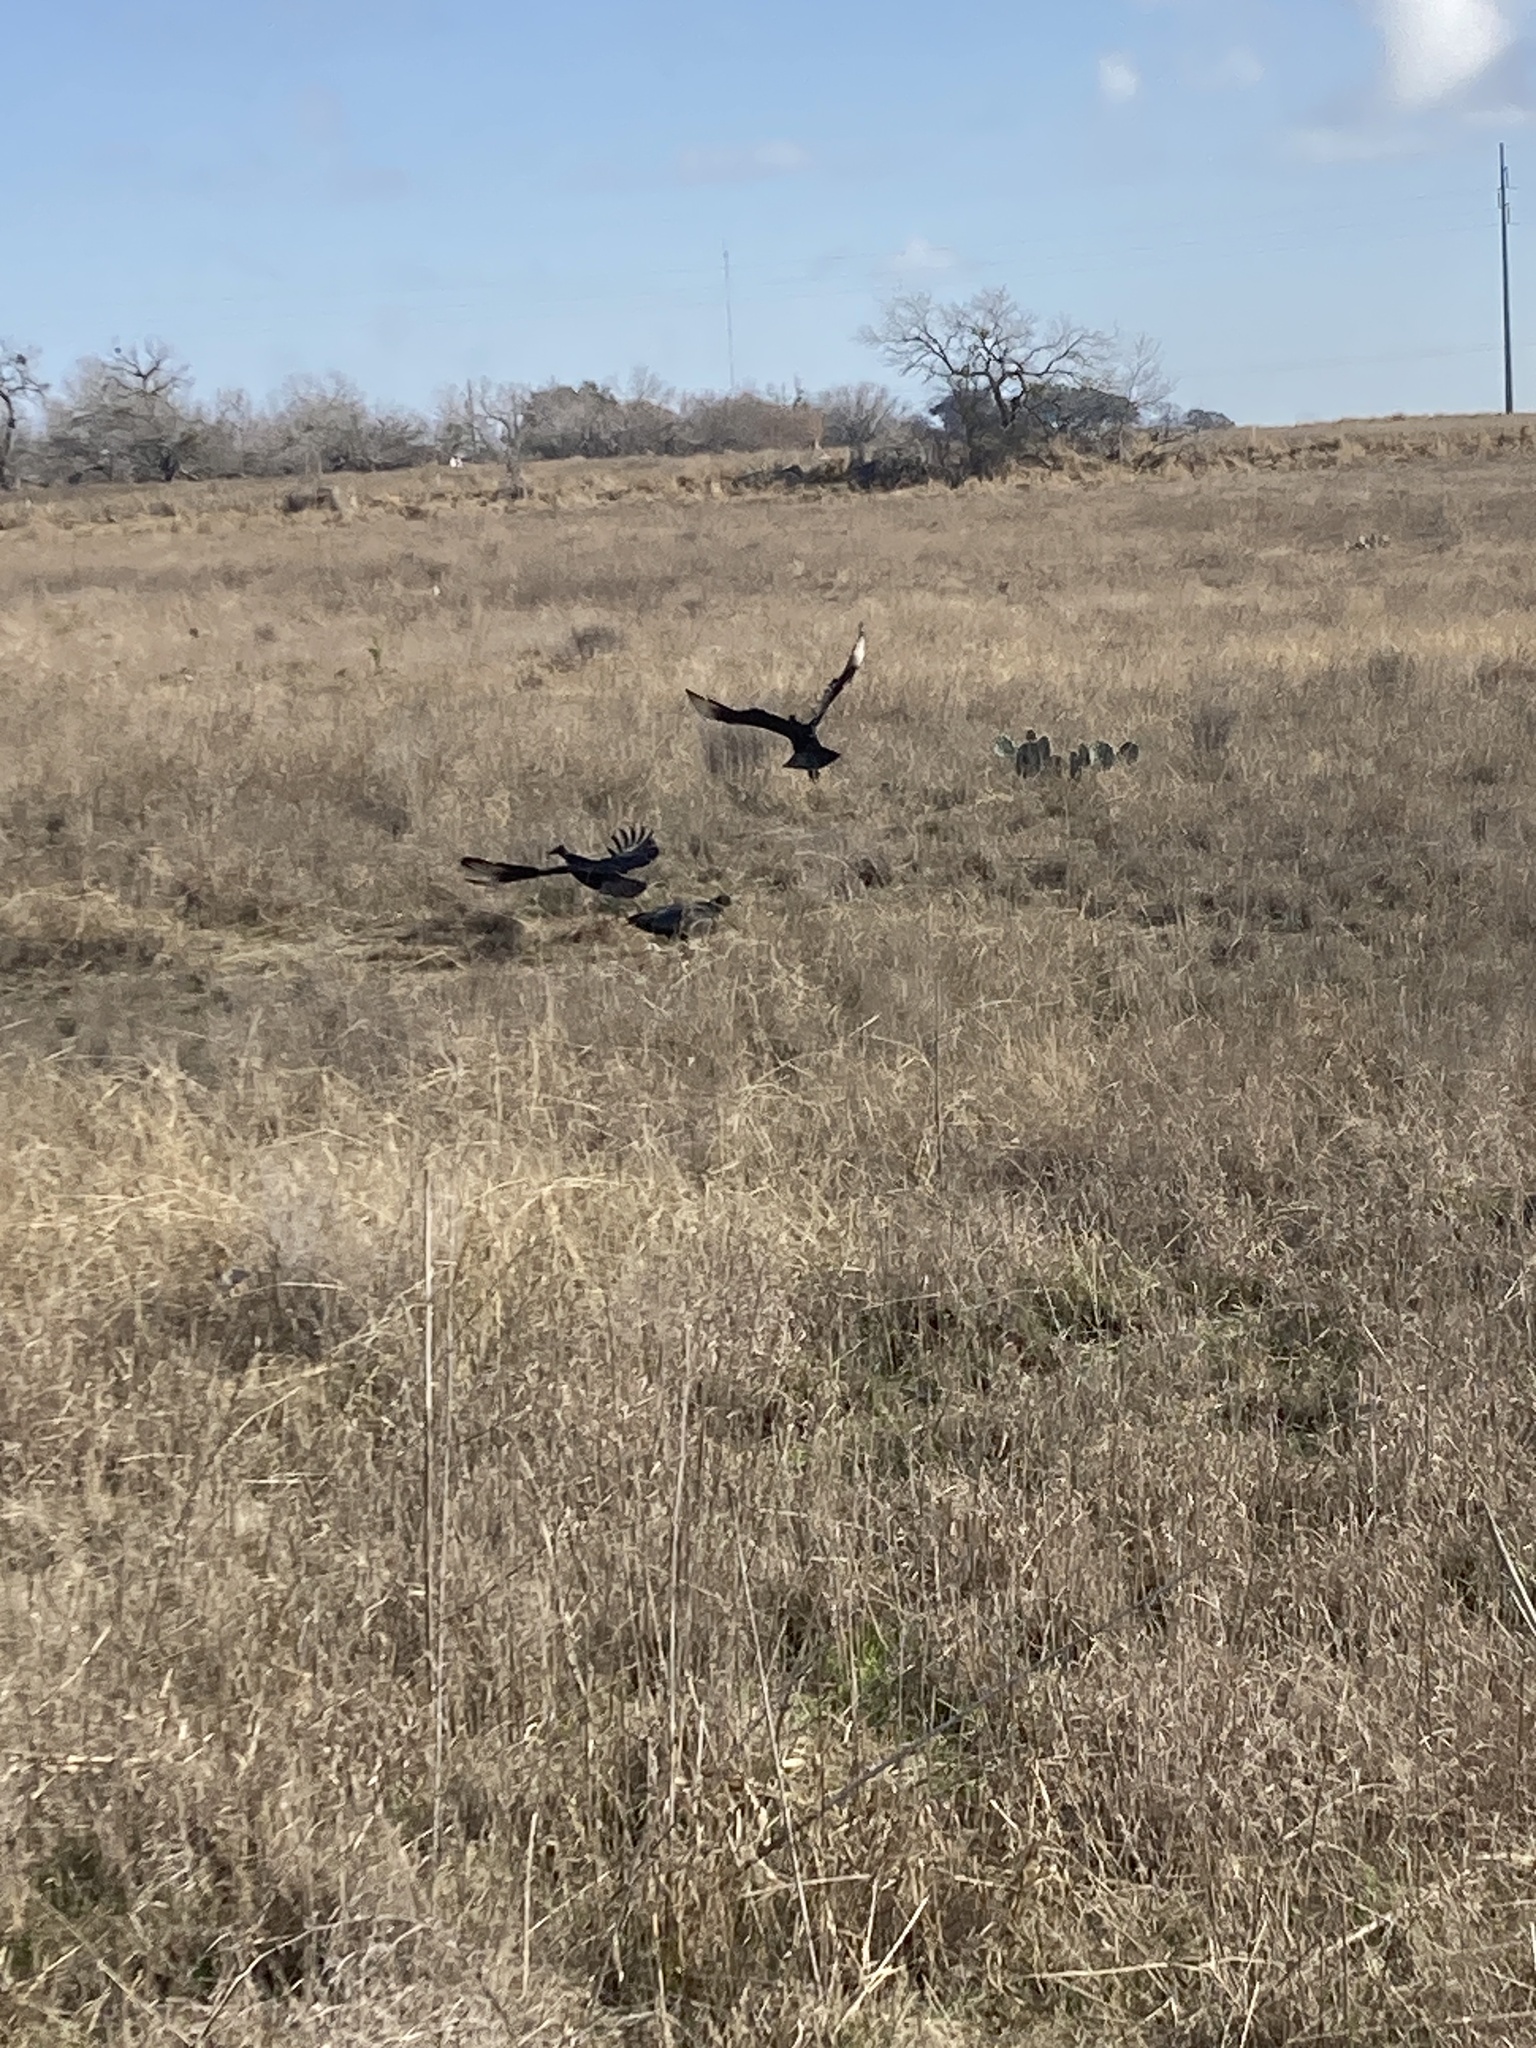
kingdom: Animalia
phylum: Chordata
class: Aves
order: Accipitriformes
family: Cathartidae
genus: Coragyps
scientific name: Coragyps atratus
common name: Black vulture
